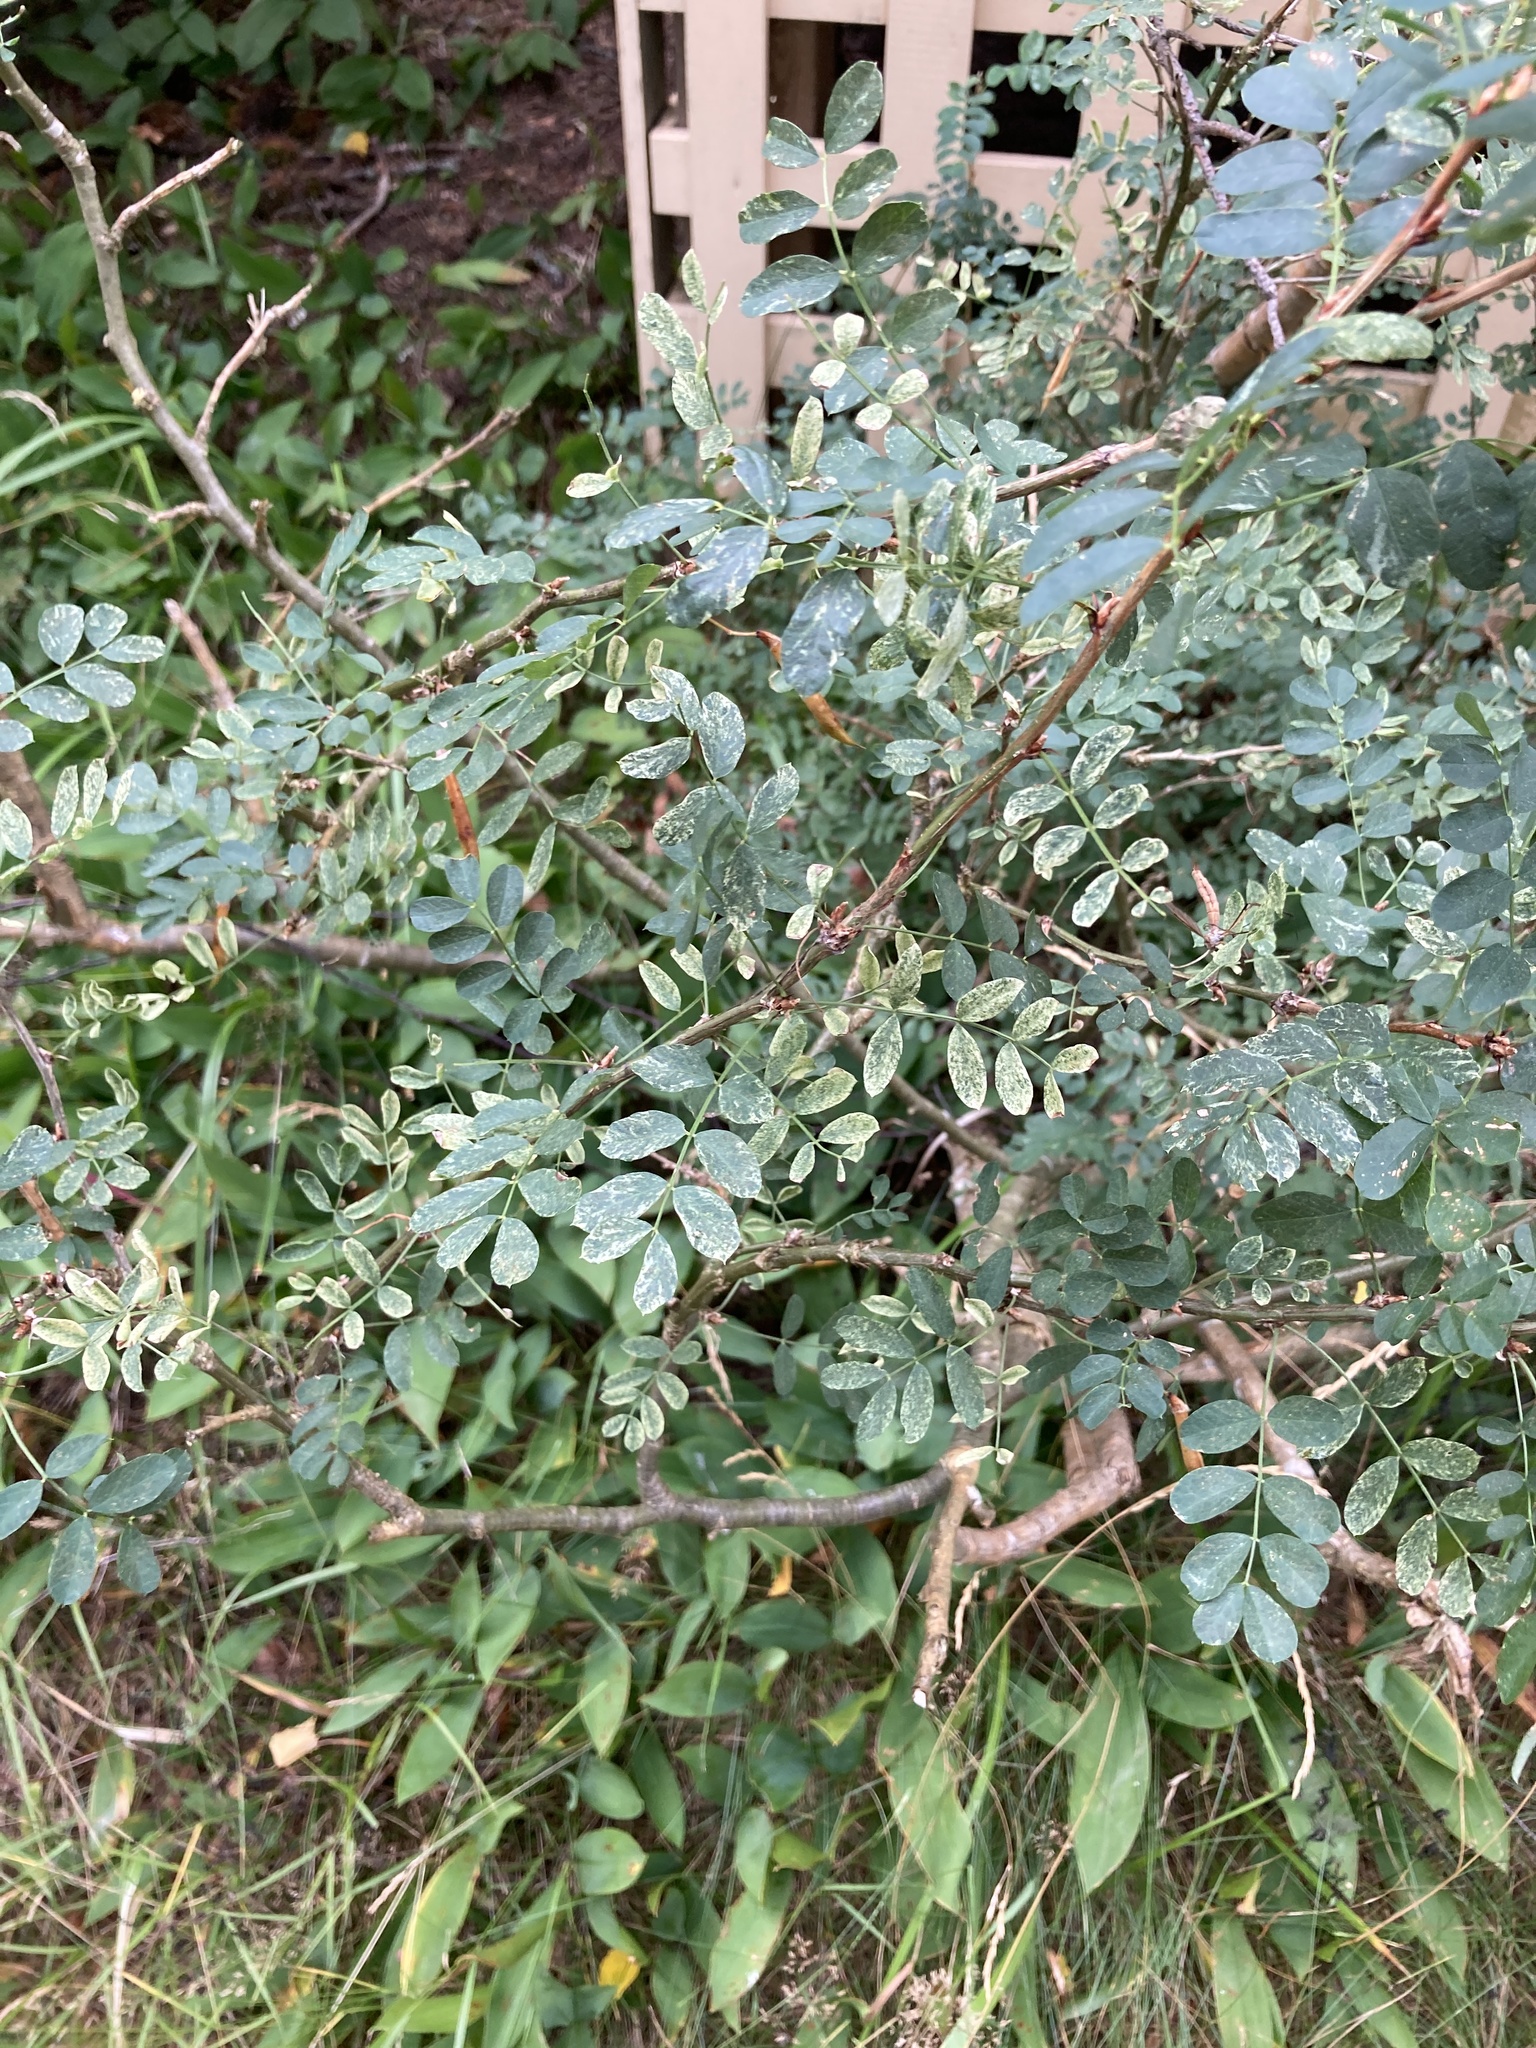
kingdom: Plantae
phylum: Tracheophyta
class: Magnoliopsida
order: Fabales
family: Fabaceae
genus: Caragana
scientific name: Caragana arborescens
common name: Siberian peashrub
